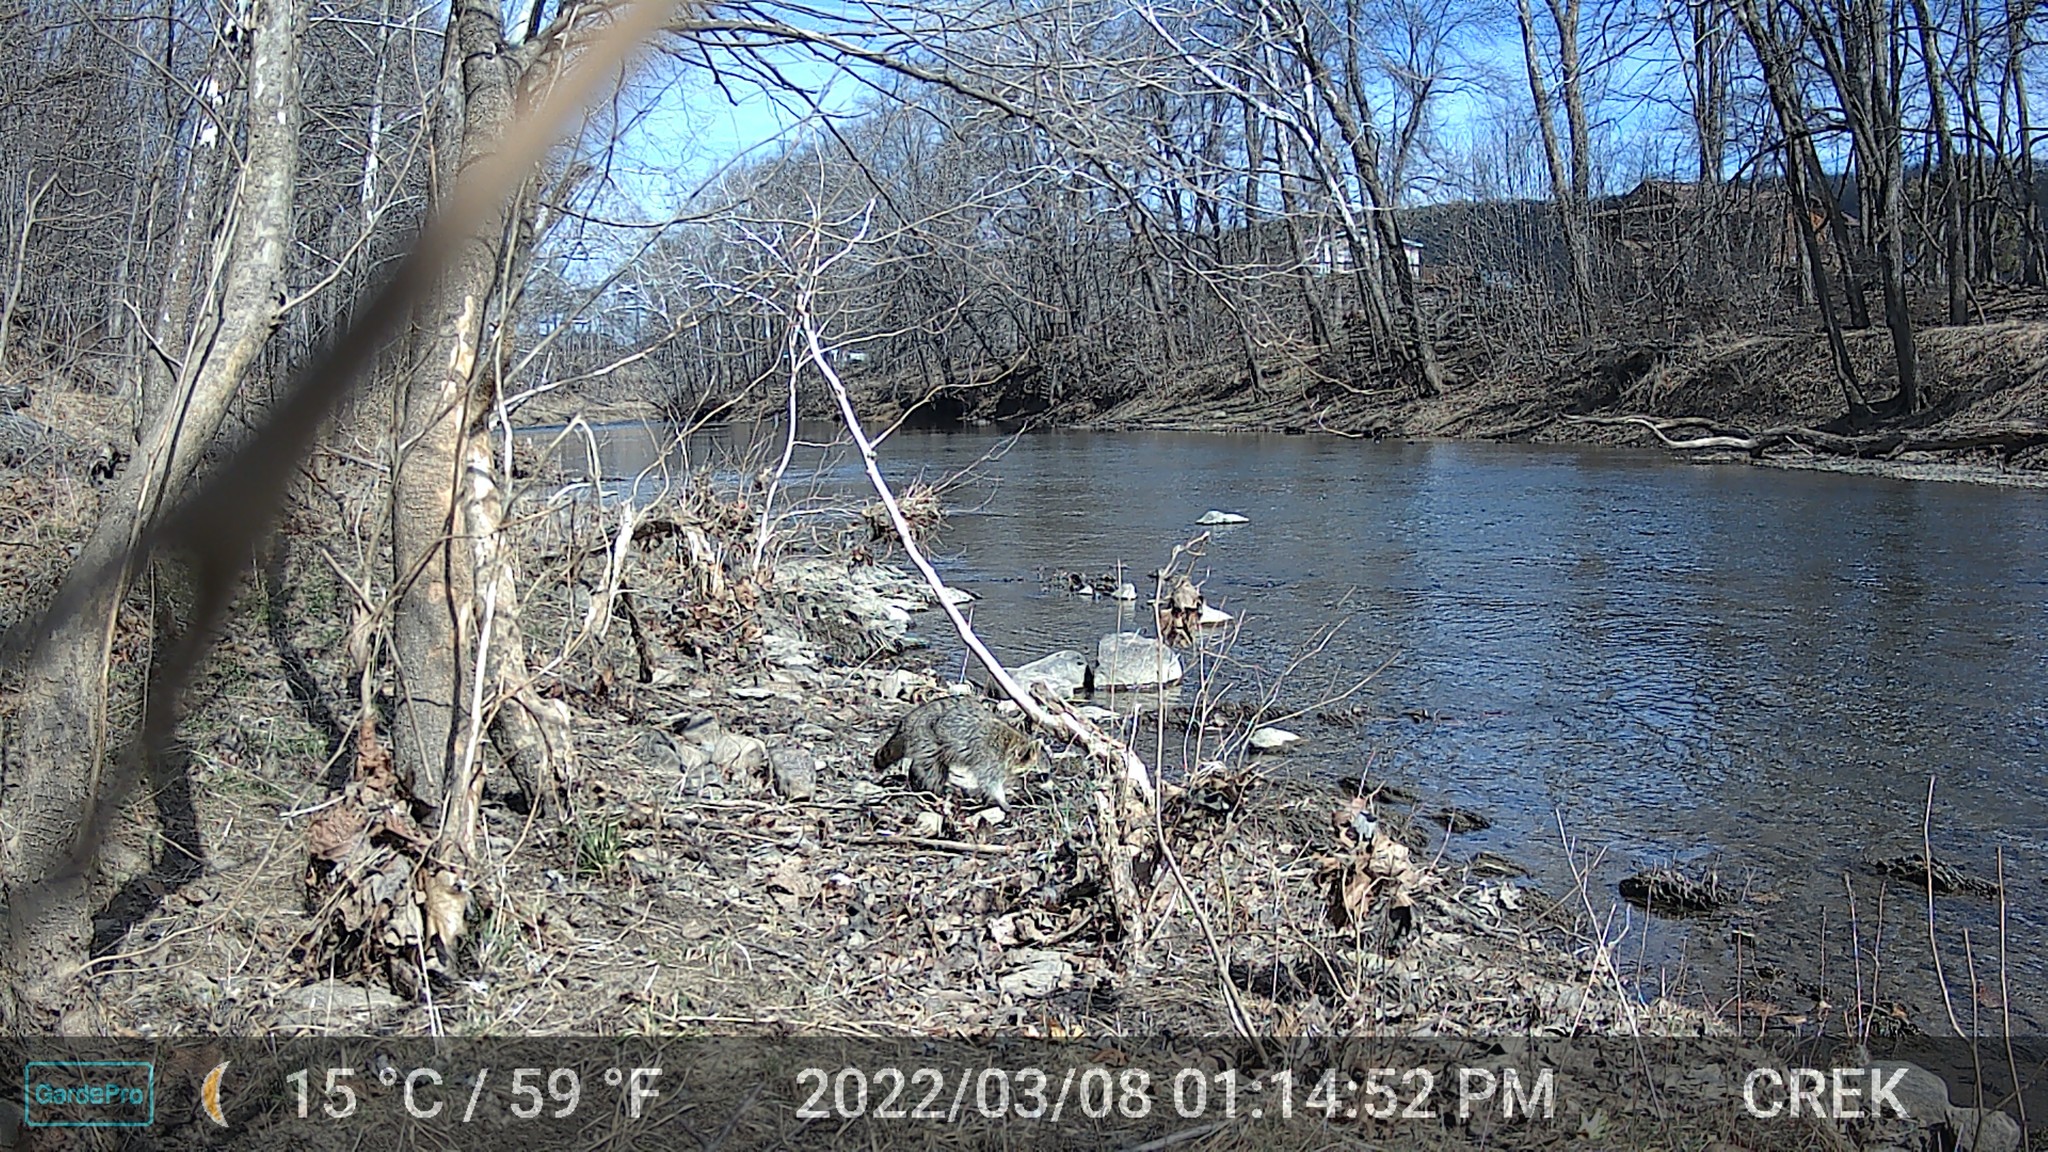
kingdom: Animalia
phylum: Chordata
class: Mammalia
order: Carnivora
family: Procyonidae
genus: Procyon
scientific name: Procyon lotor
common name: Raccoon
